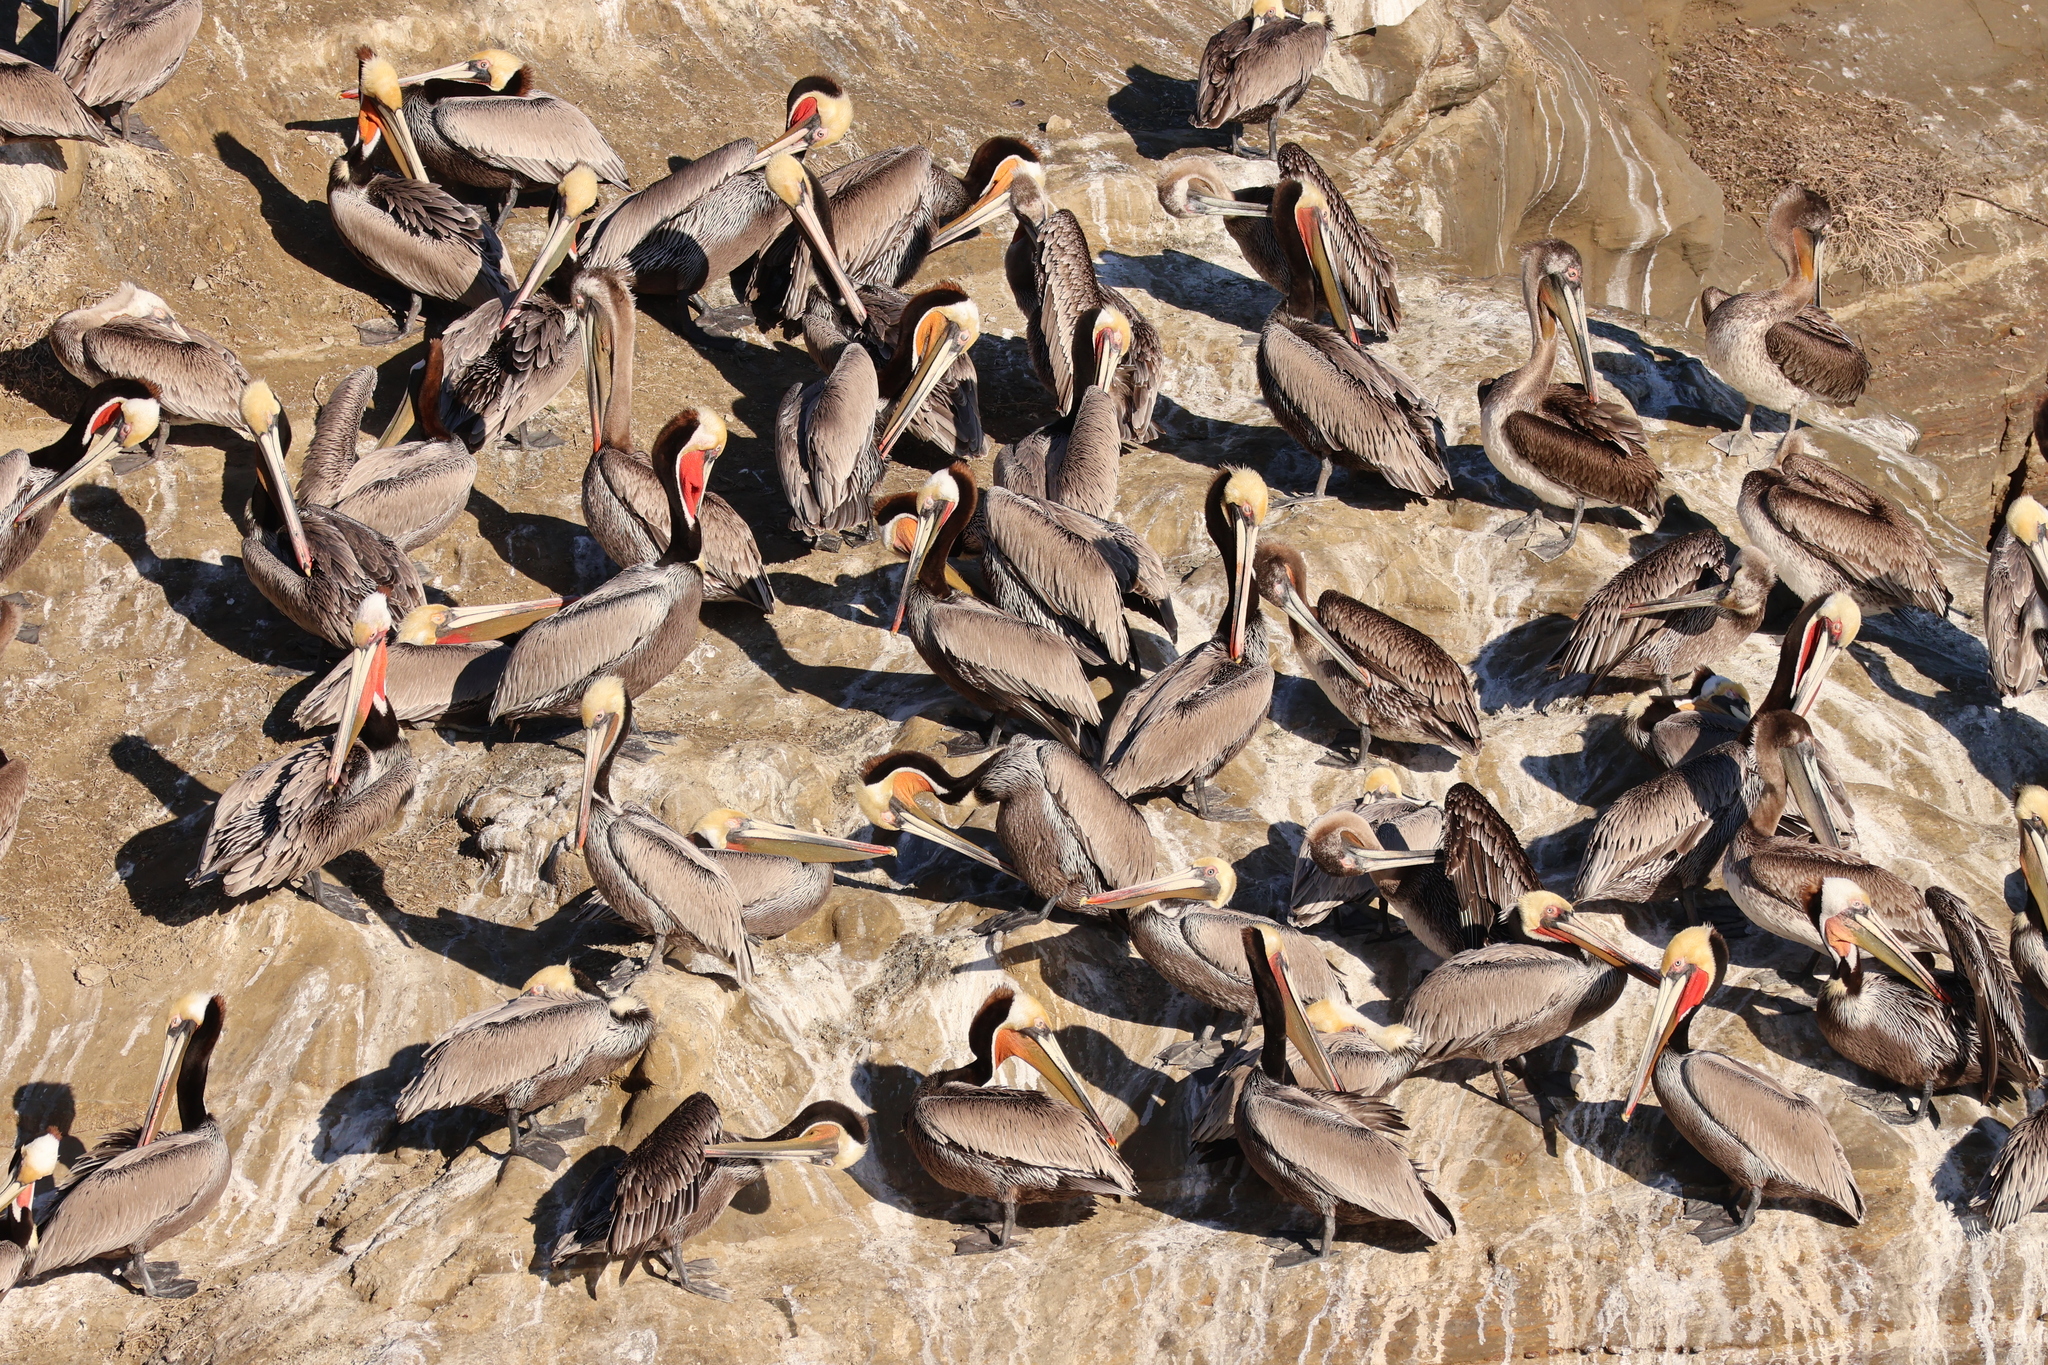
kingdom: Animalia
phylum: Chordata
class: Aves
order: Pelecaniformes
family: Pelecanidae
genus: Pelecanus
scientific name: Pelecanus occidentalis
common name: Brown pelican
